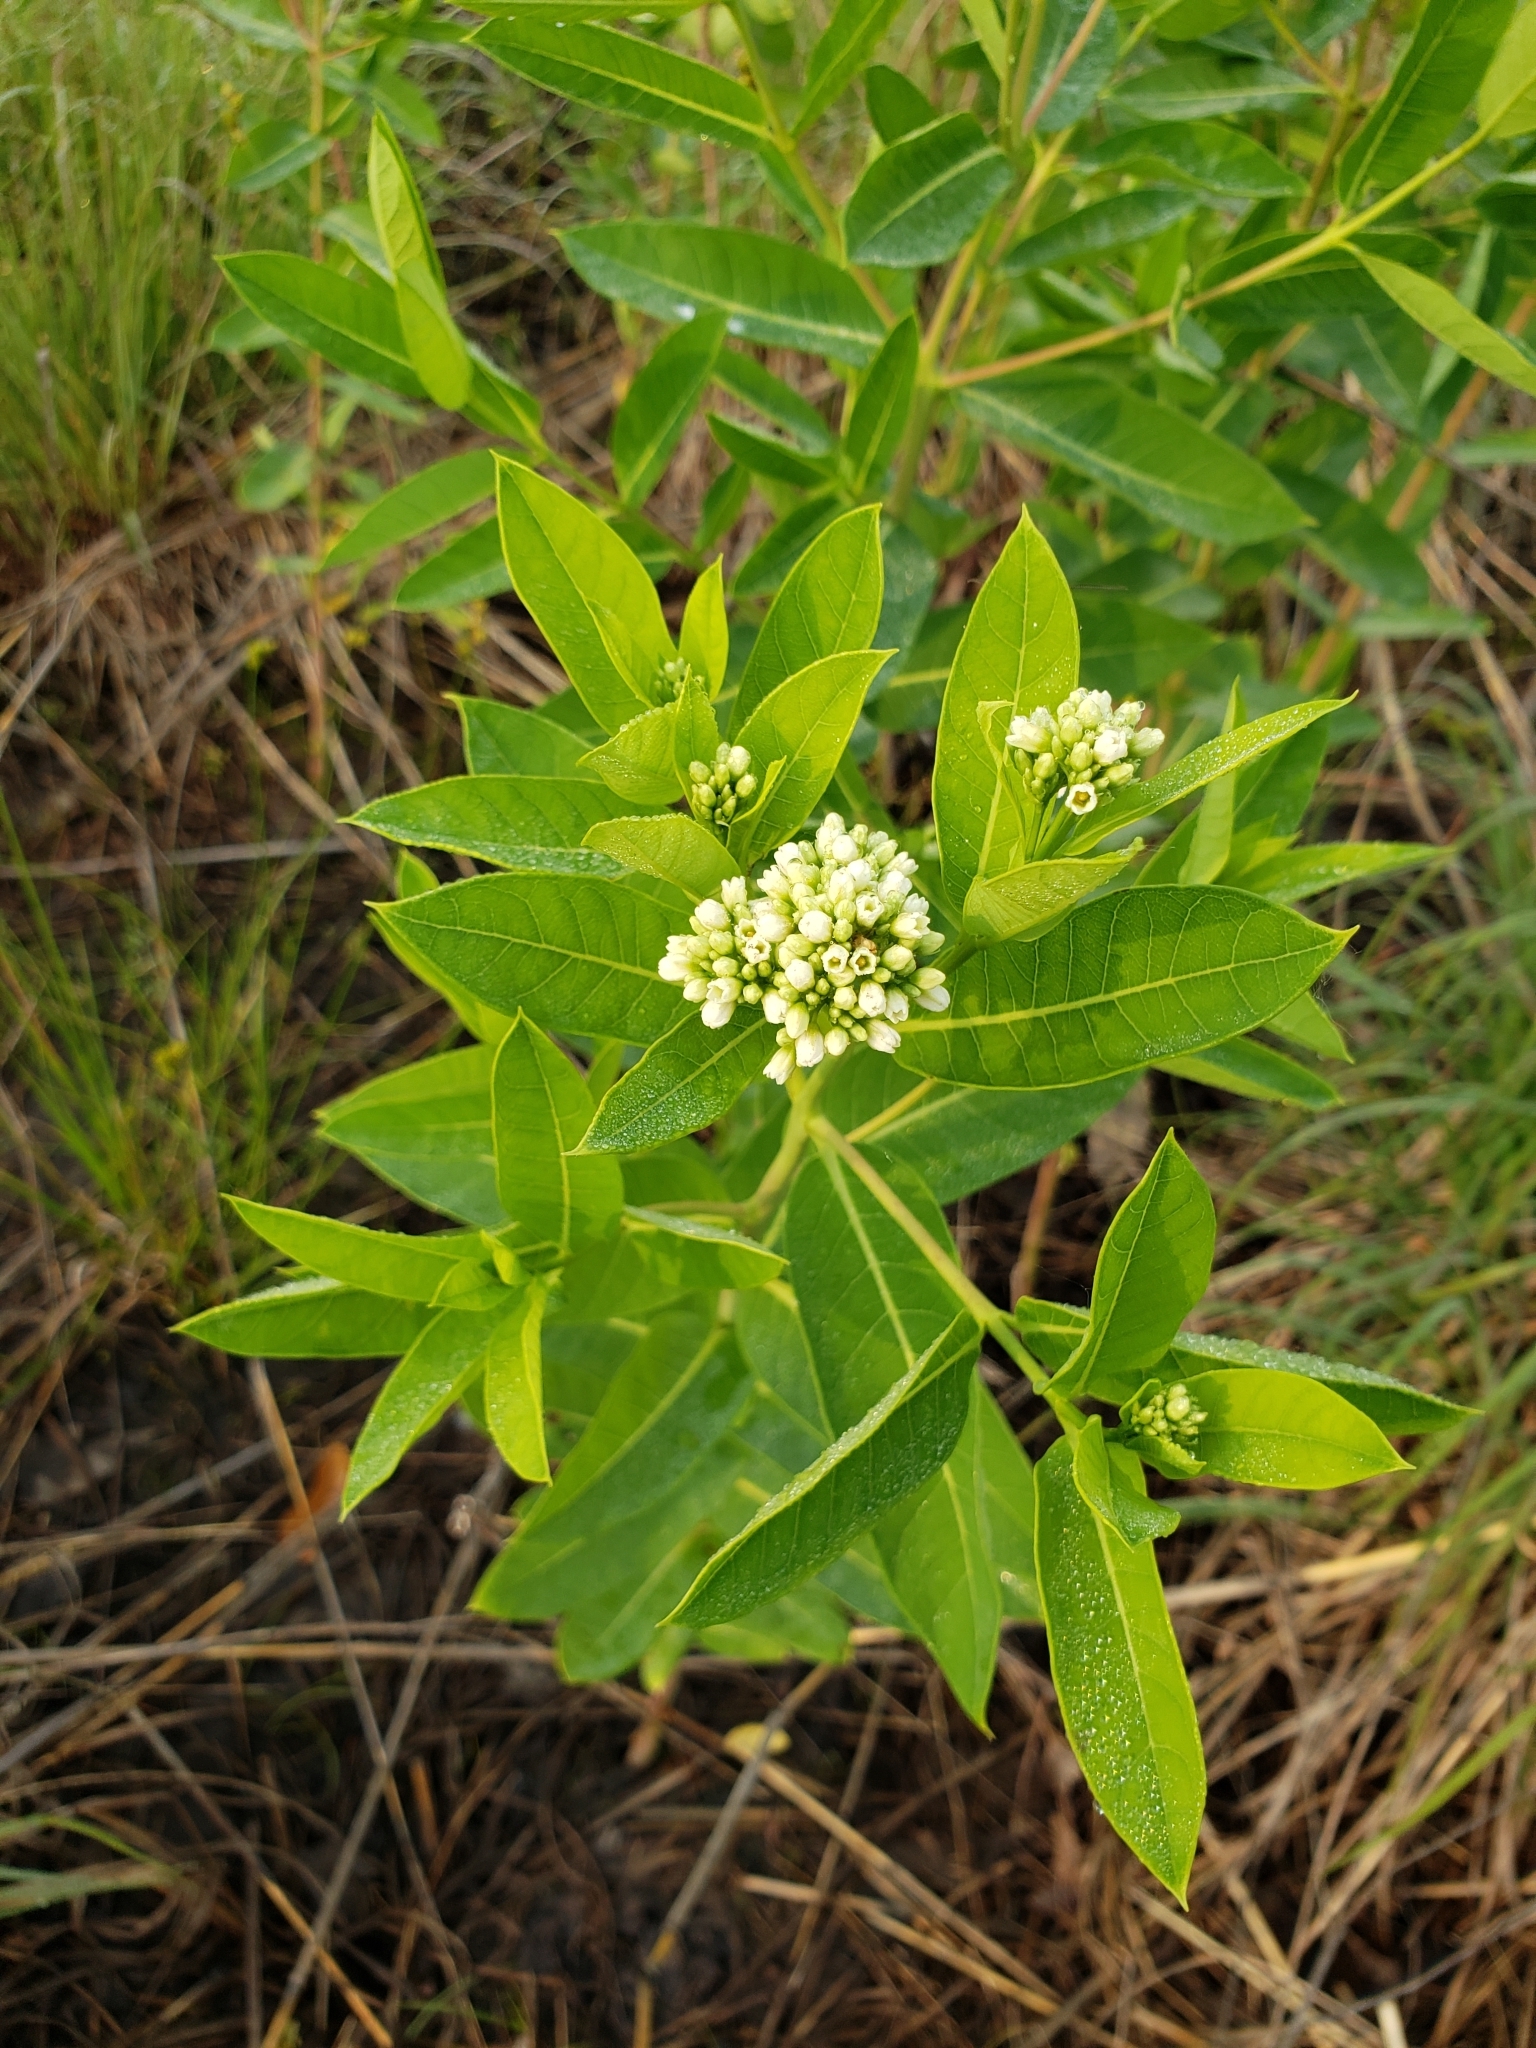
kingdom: Plantae
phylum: Tracheophyta
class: Magnoliopsida
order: Gentianales
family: Apocynaceae
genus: Apocynum
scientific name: Apocynum cannabinum
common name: Hemp dogbane
